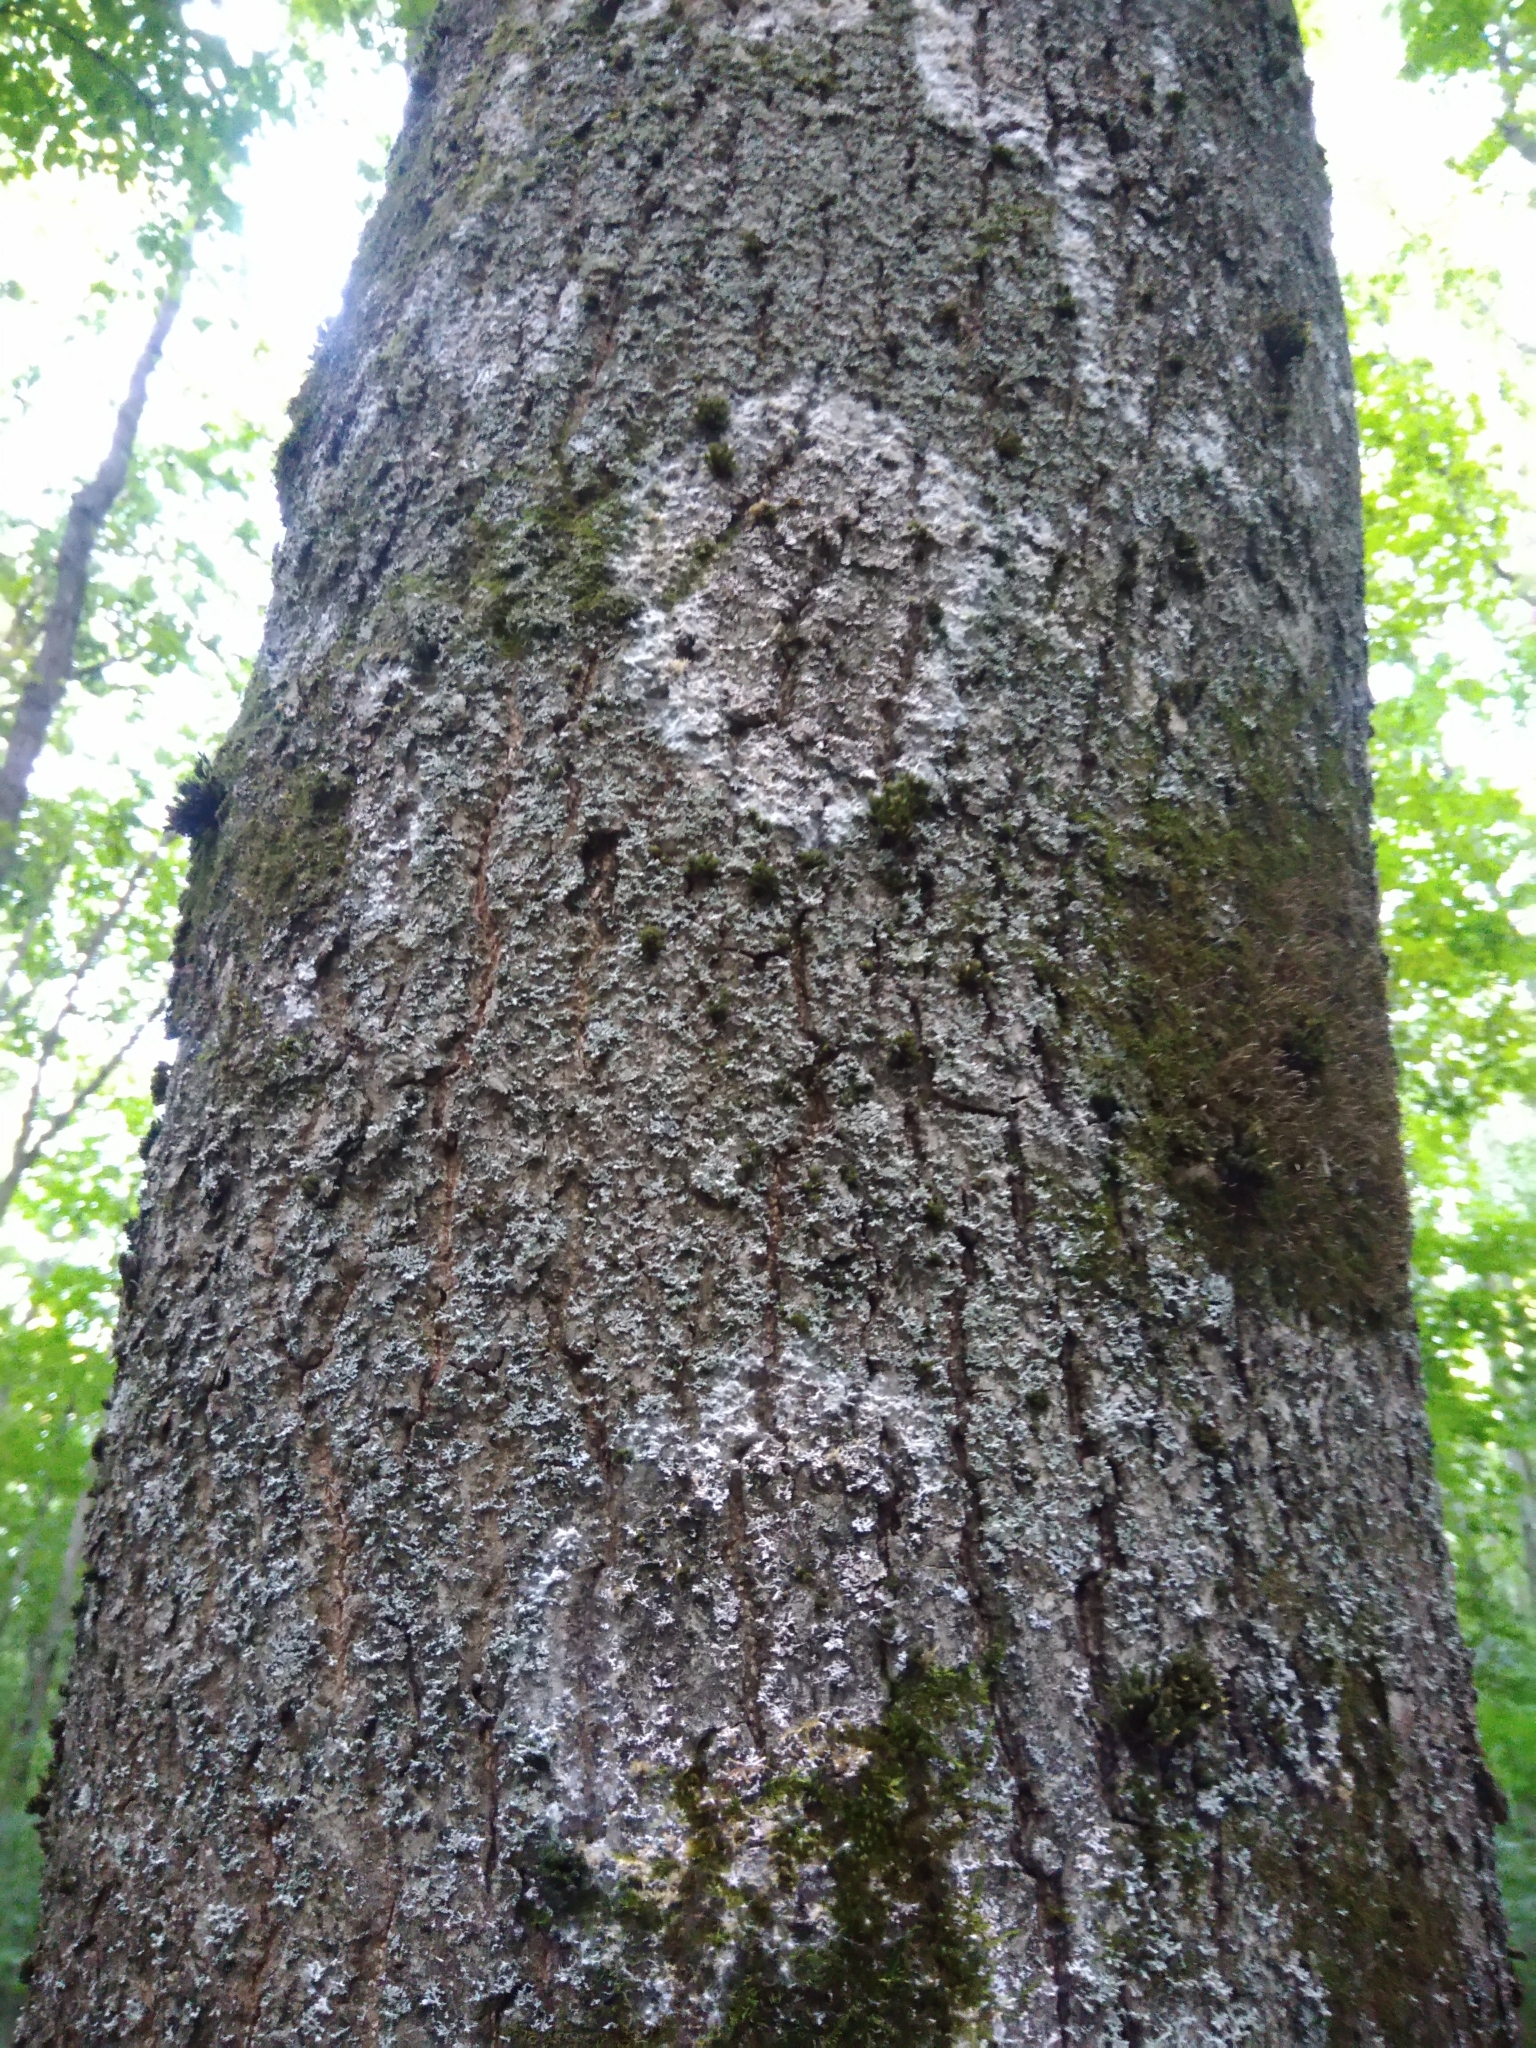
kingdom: Fungi
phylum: Basidiomycota
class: Agaricomycetes
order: Atheliales
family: Atheliaceae
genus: Athelia
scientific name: Athelia arachnoidea
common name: Candelabra duster
